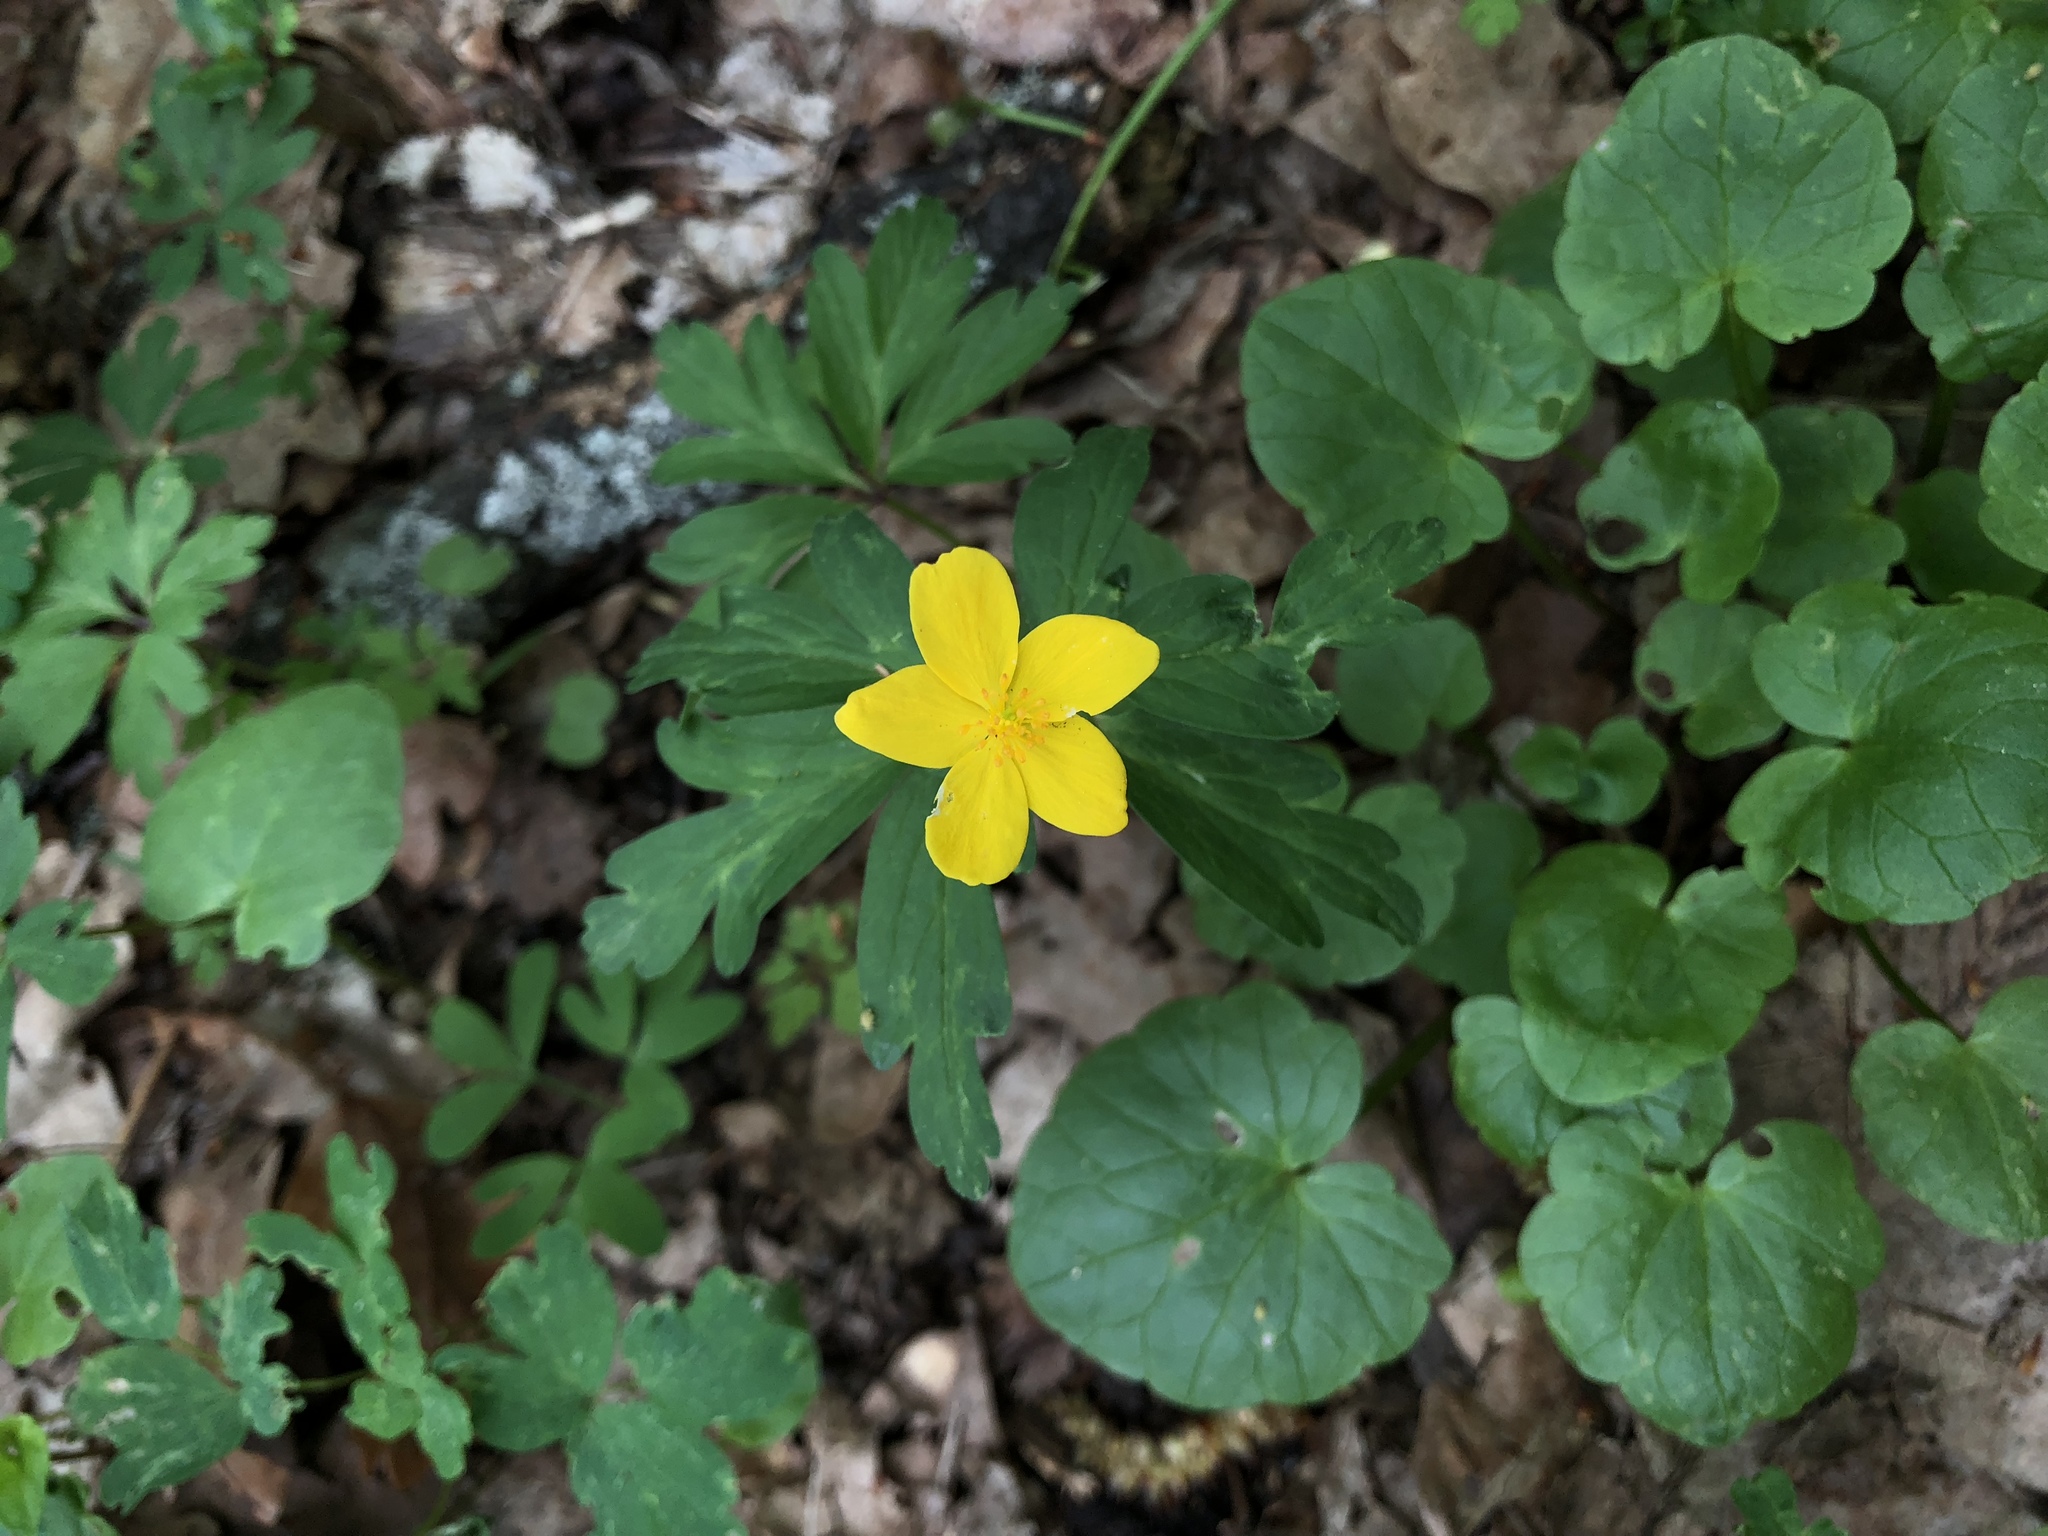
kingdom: Plantae
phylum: Tracheophyta
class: Magnoliopsida
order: Ranunculales
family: Ranunculaceae
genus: Anemone
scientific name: Anemone ranunculoides
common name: Yellow anemone
